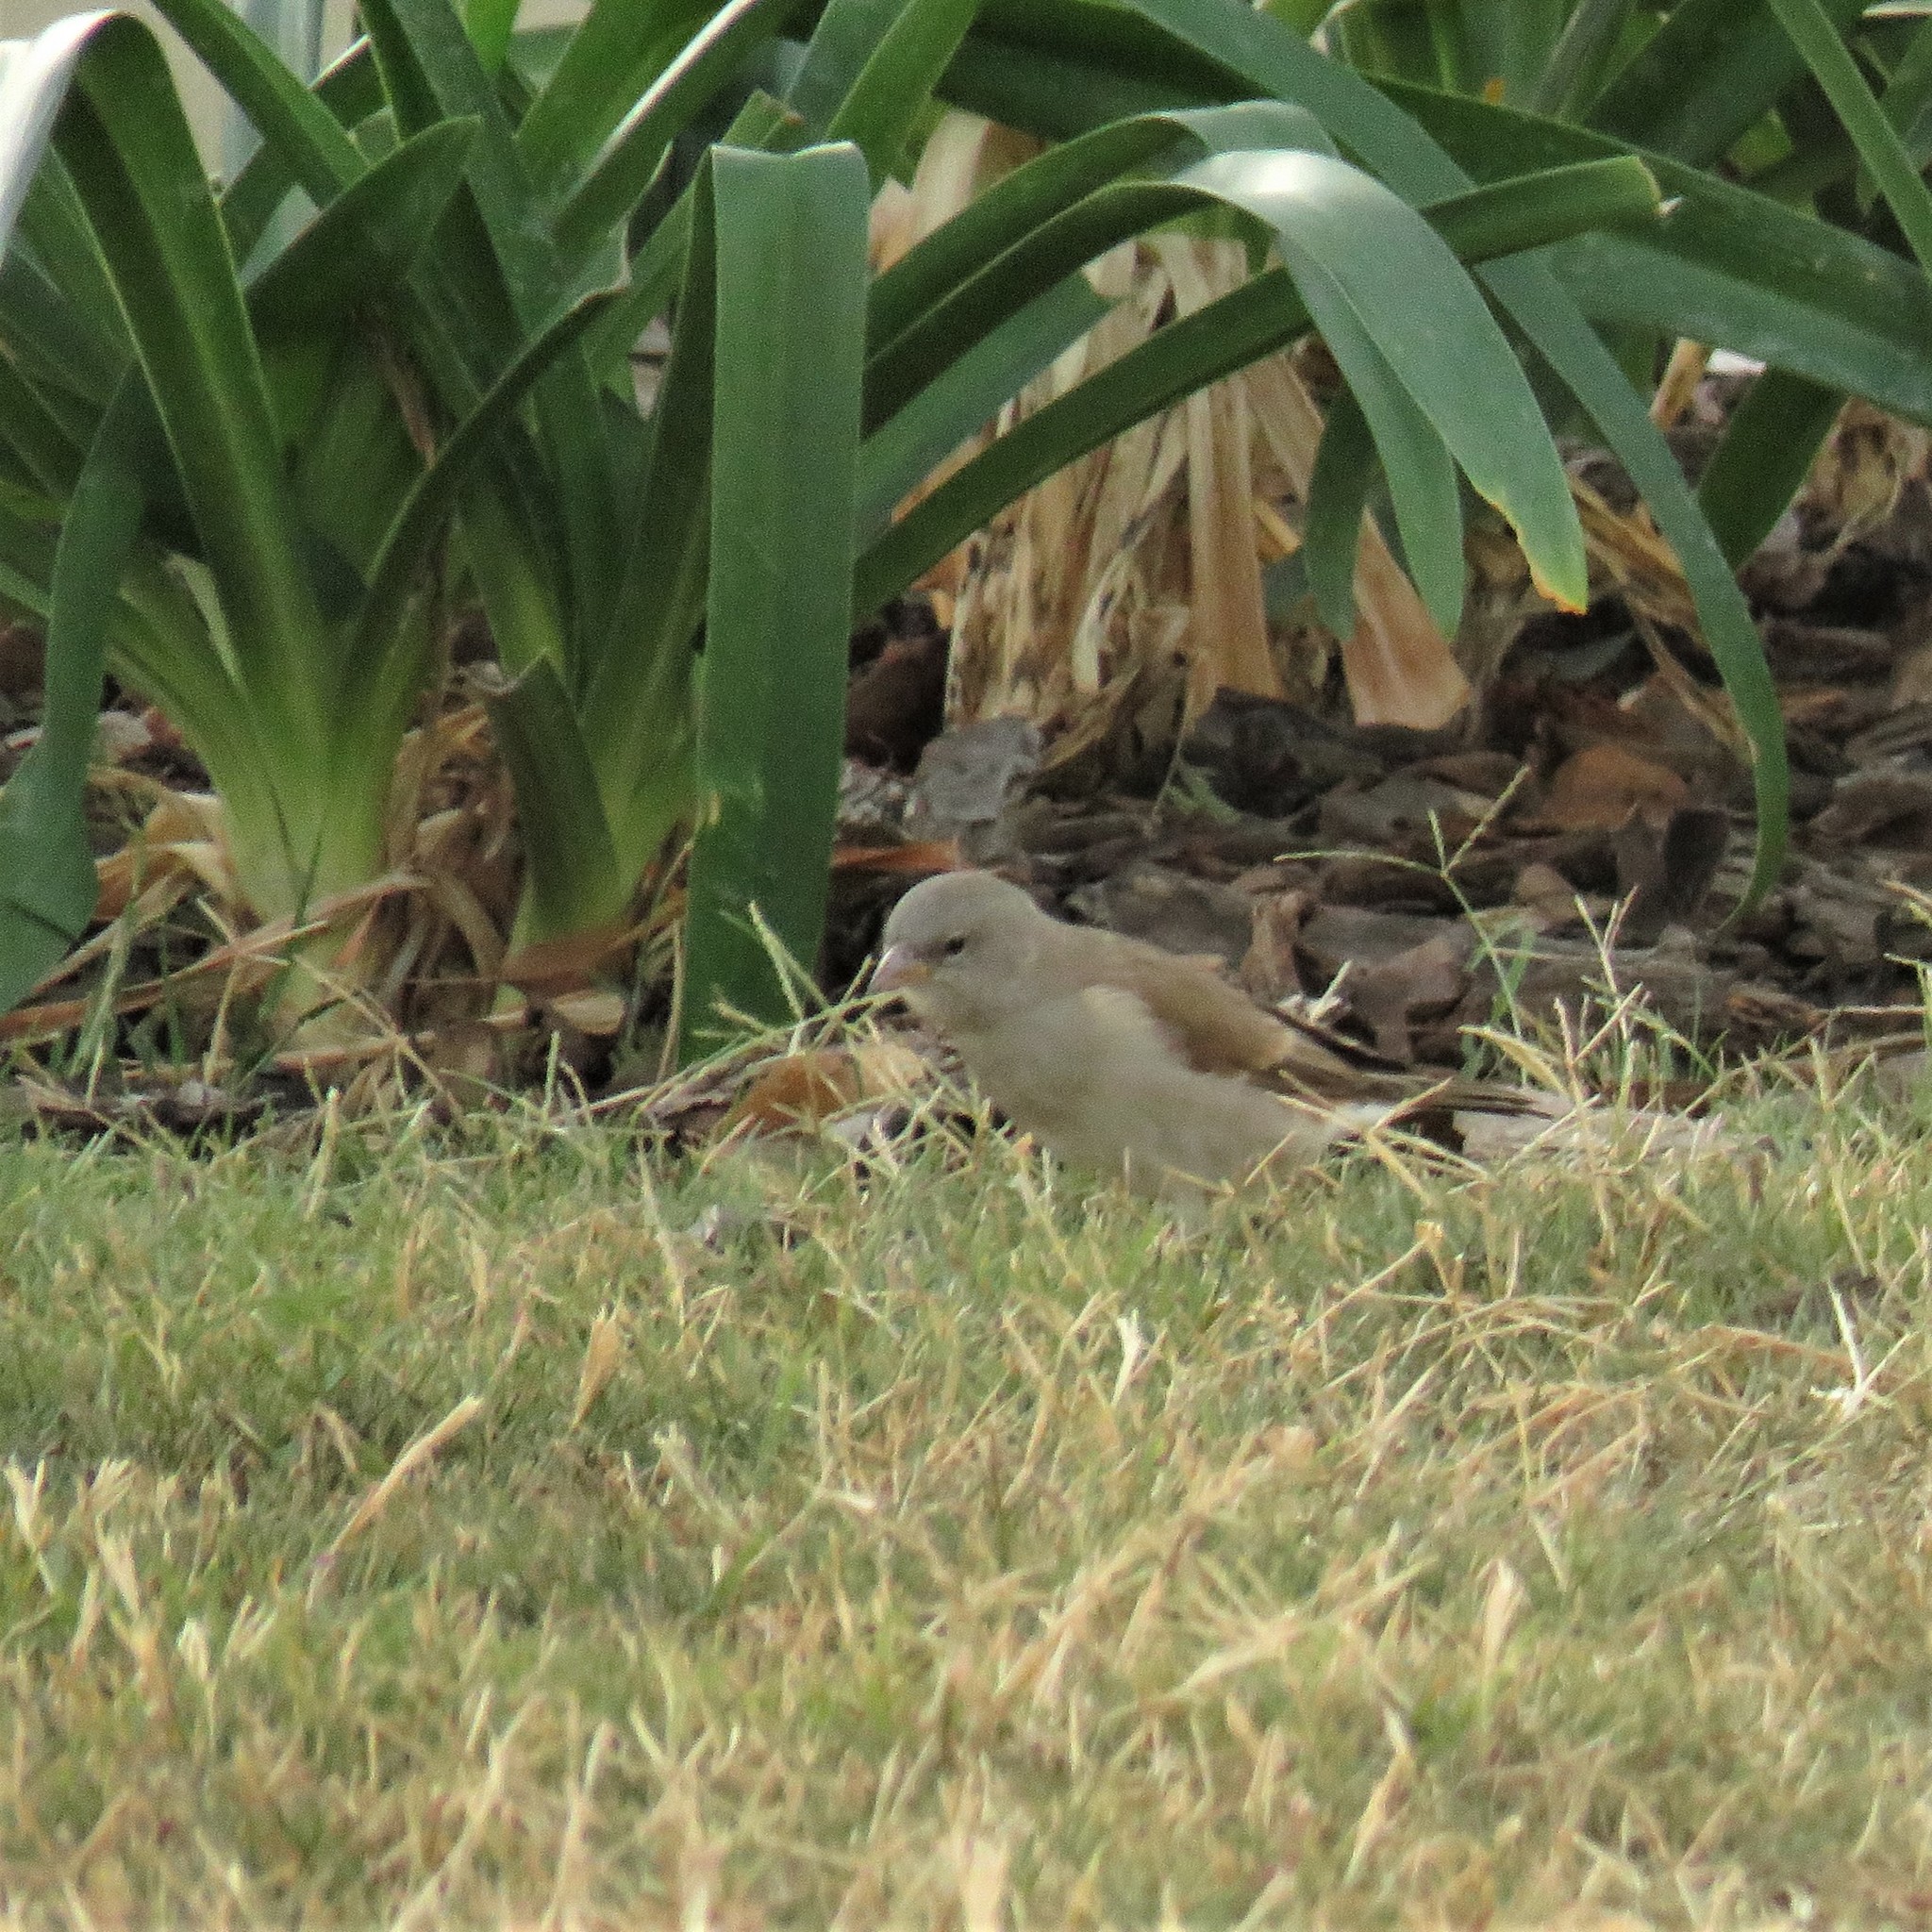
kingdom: Animalia
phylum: Chordata
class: Aves
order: Passeriformes
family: Passeridae
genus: Passer
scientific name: Passer diffusus
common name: Southern grey-headed sparrow
